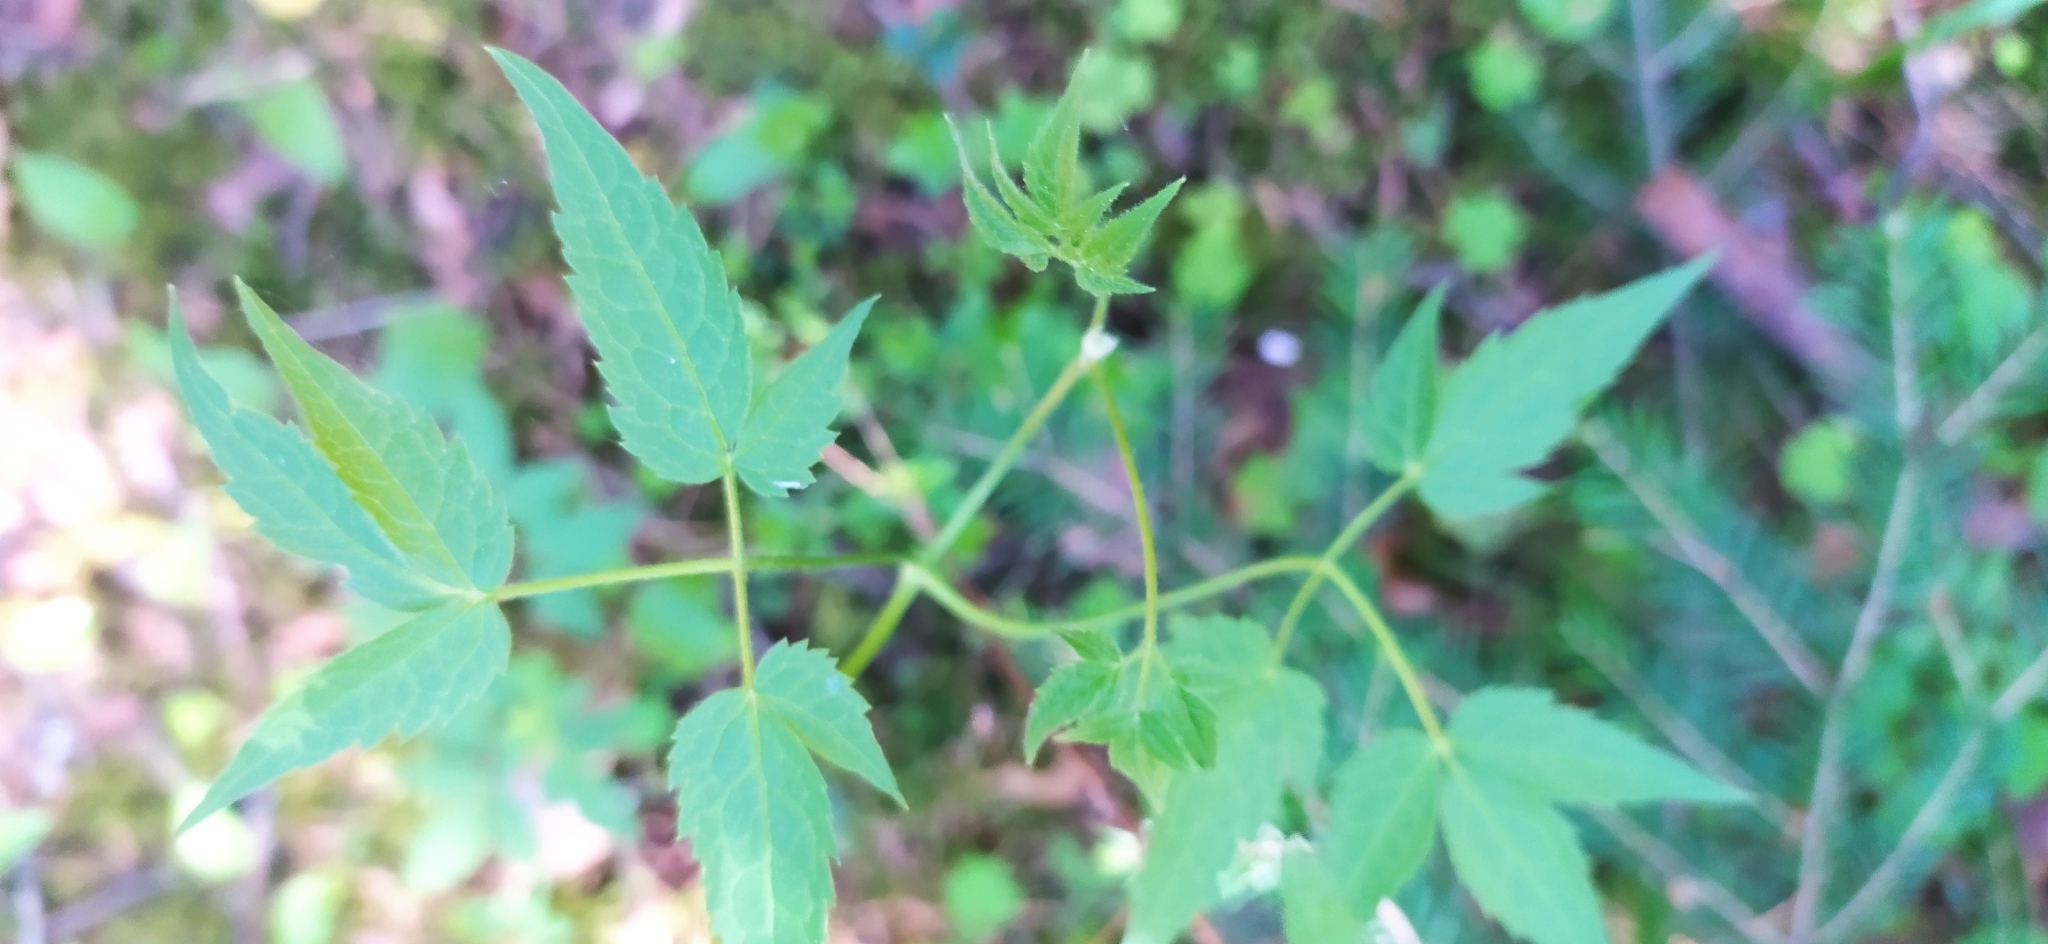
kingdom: Plantae
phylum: Tracheophyta
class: Magnoliopsida
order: Ranunculales
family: Ranunculaceae
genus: Clematis
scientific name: Clematis sibirica
